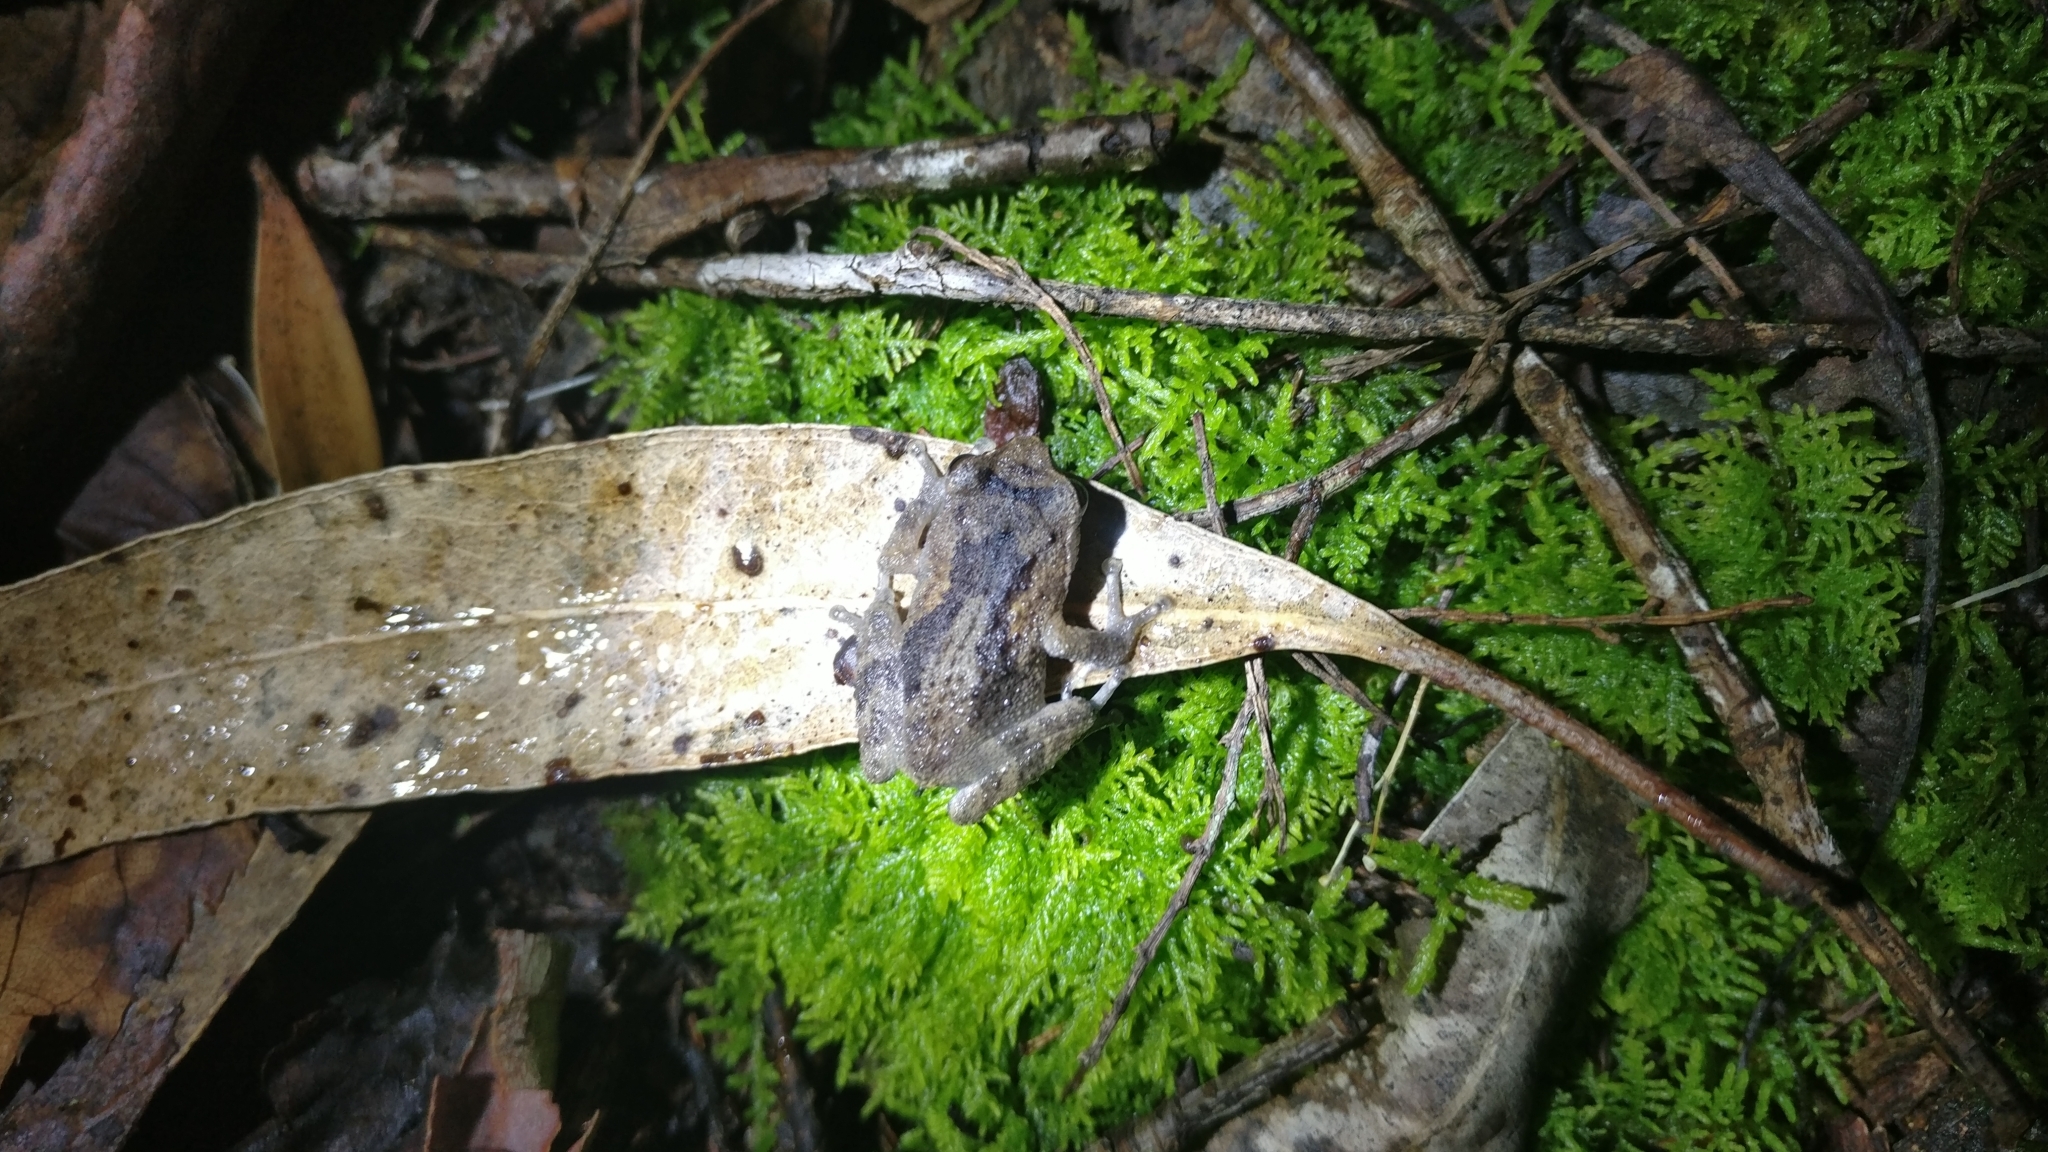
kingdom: Animalia
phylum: Chordata
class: Amphibia
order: Anura
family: Rhacophoridae
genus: Raorchestes
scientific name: Raorchestes dubois
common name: Koadaikanal bush frog
